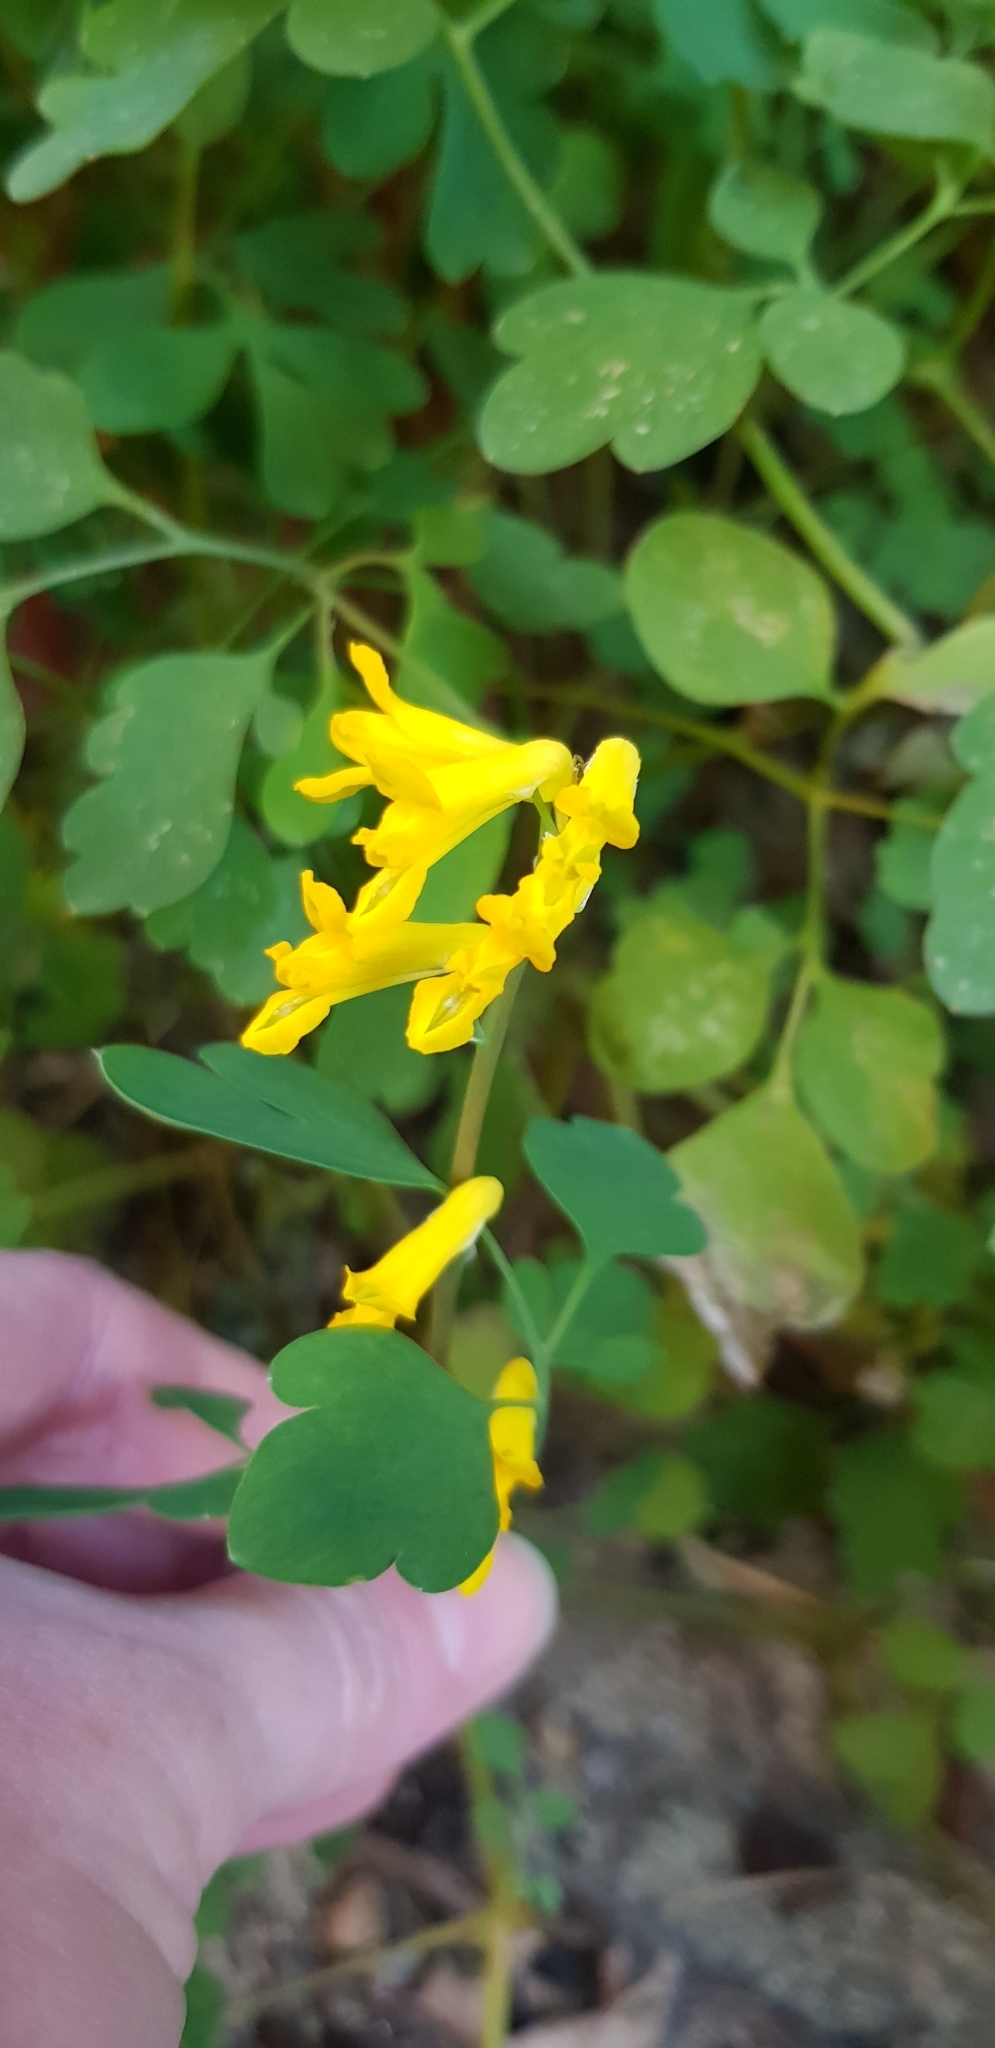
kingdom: Plantae
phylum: Tracheophyta
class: Magnoliopsida
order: Ranunculales
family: Papaveraceae
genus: Pseudofumaria
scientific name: Pseudofumaria lutea
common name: Yellow corydalis
